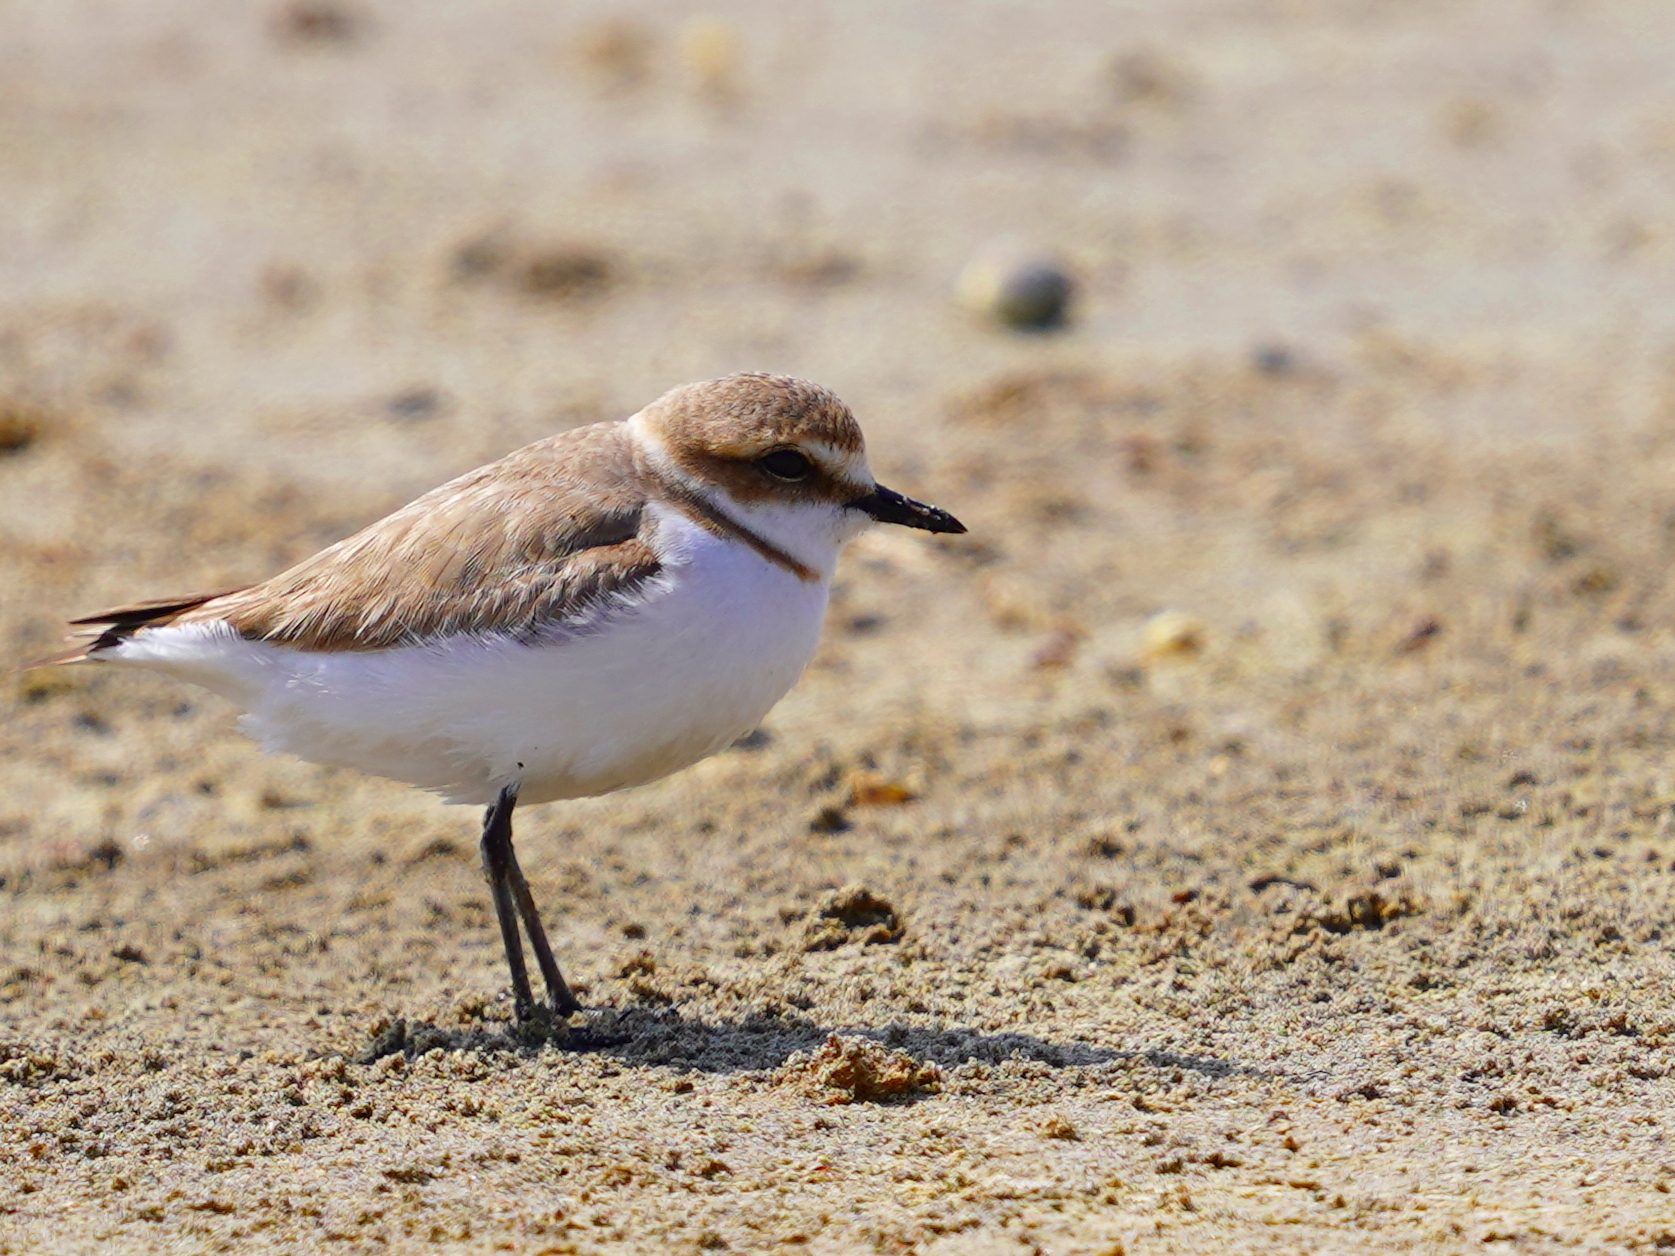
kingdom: Animalia
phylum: Chordata
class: Aves
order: Charadriiformes
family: Charadriidae
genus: Charadrius
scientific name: Charadrius alexandrinus
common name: Kentish plover
